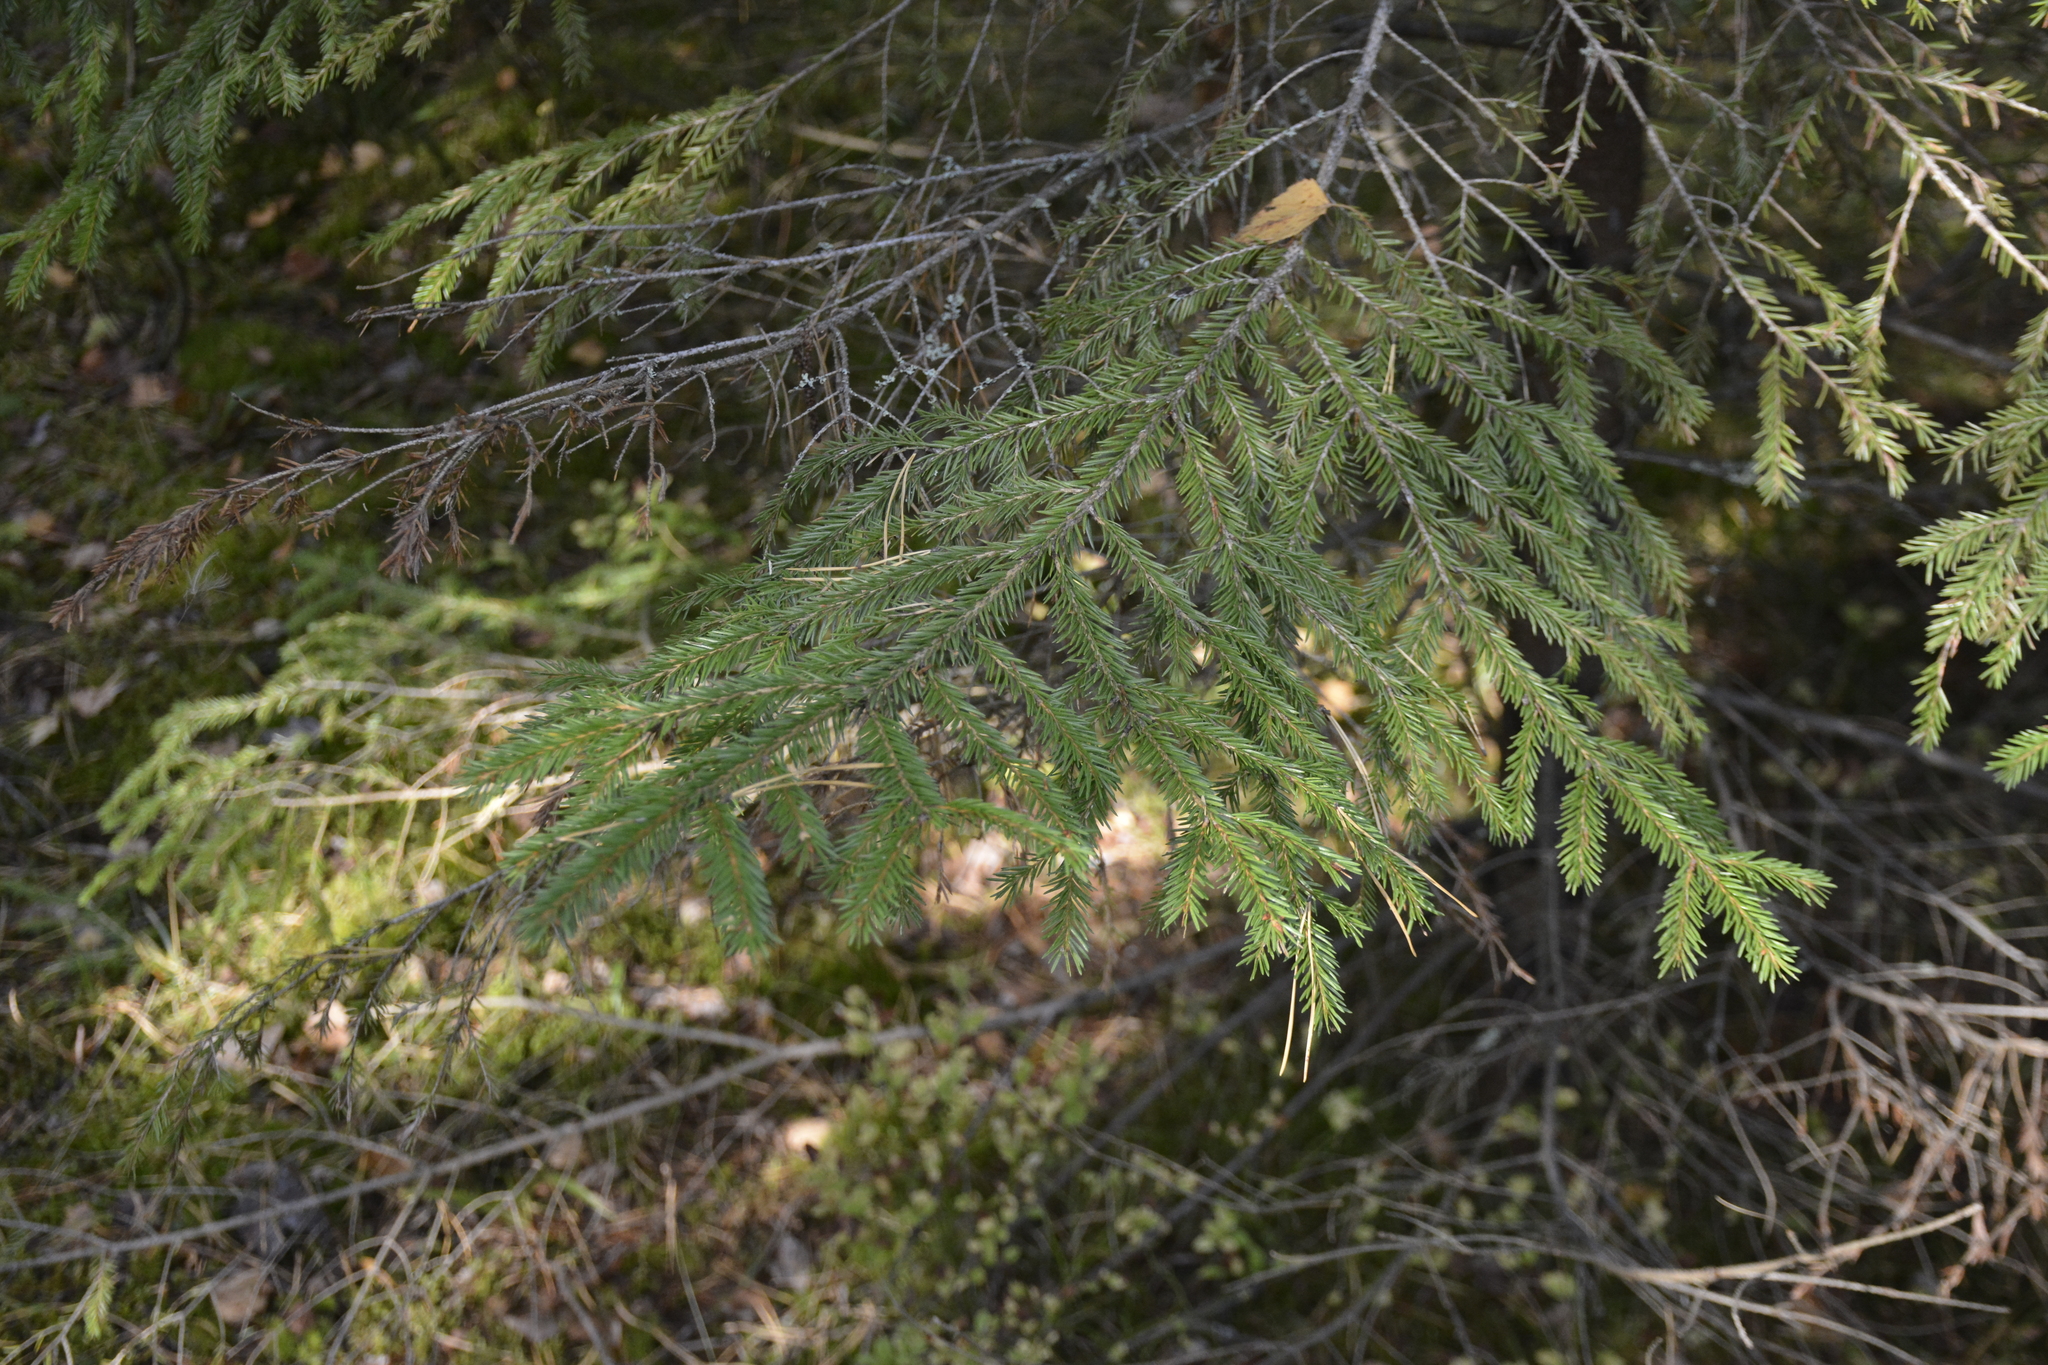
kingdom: Plantae
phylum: Tracheophyta
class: Pinopsida
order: Pinales
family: Pinaceae
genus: Picea
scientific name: Picea abies
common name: Norway spruce
